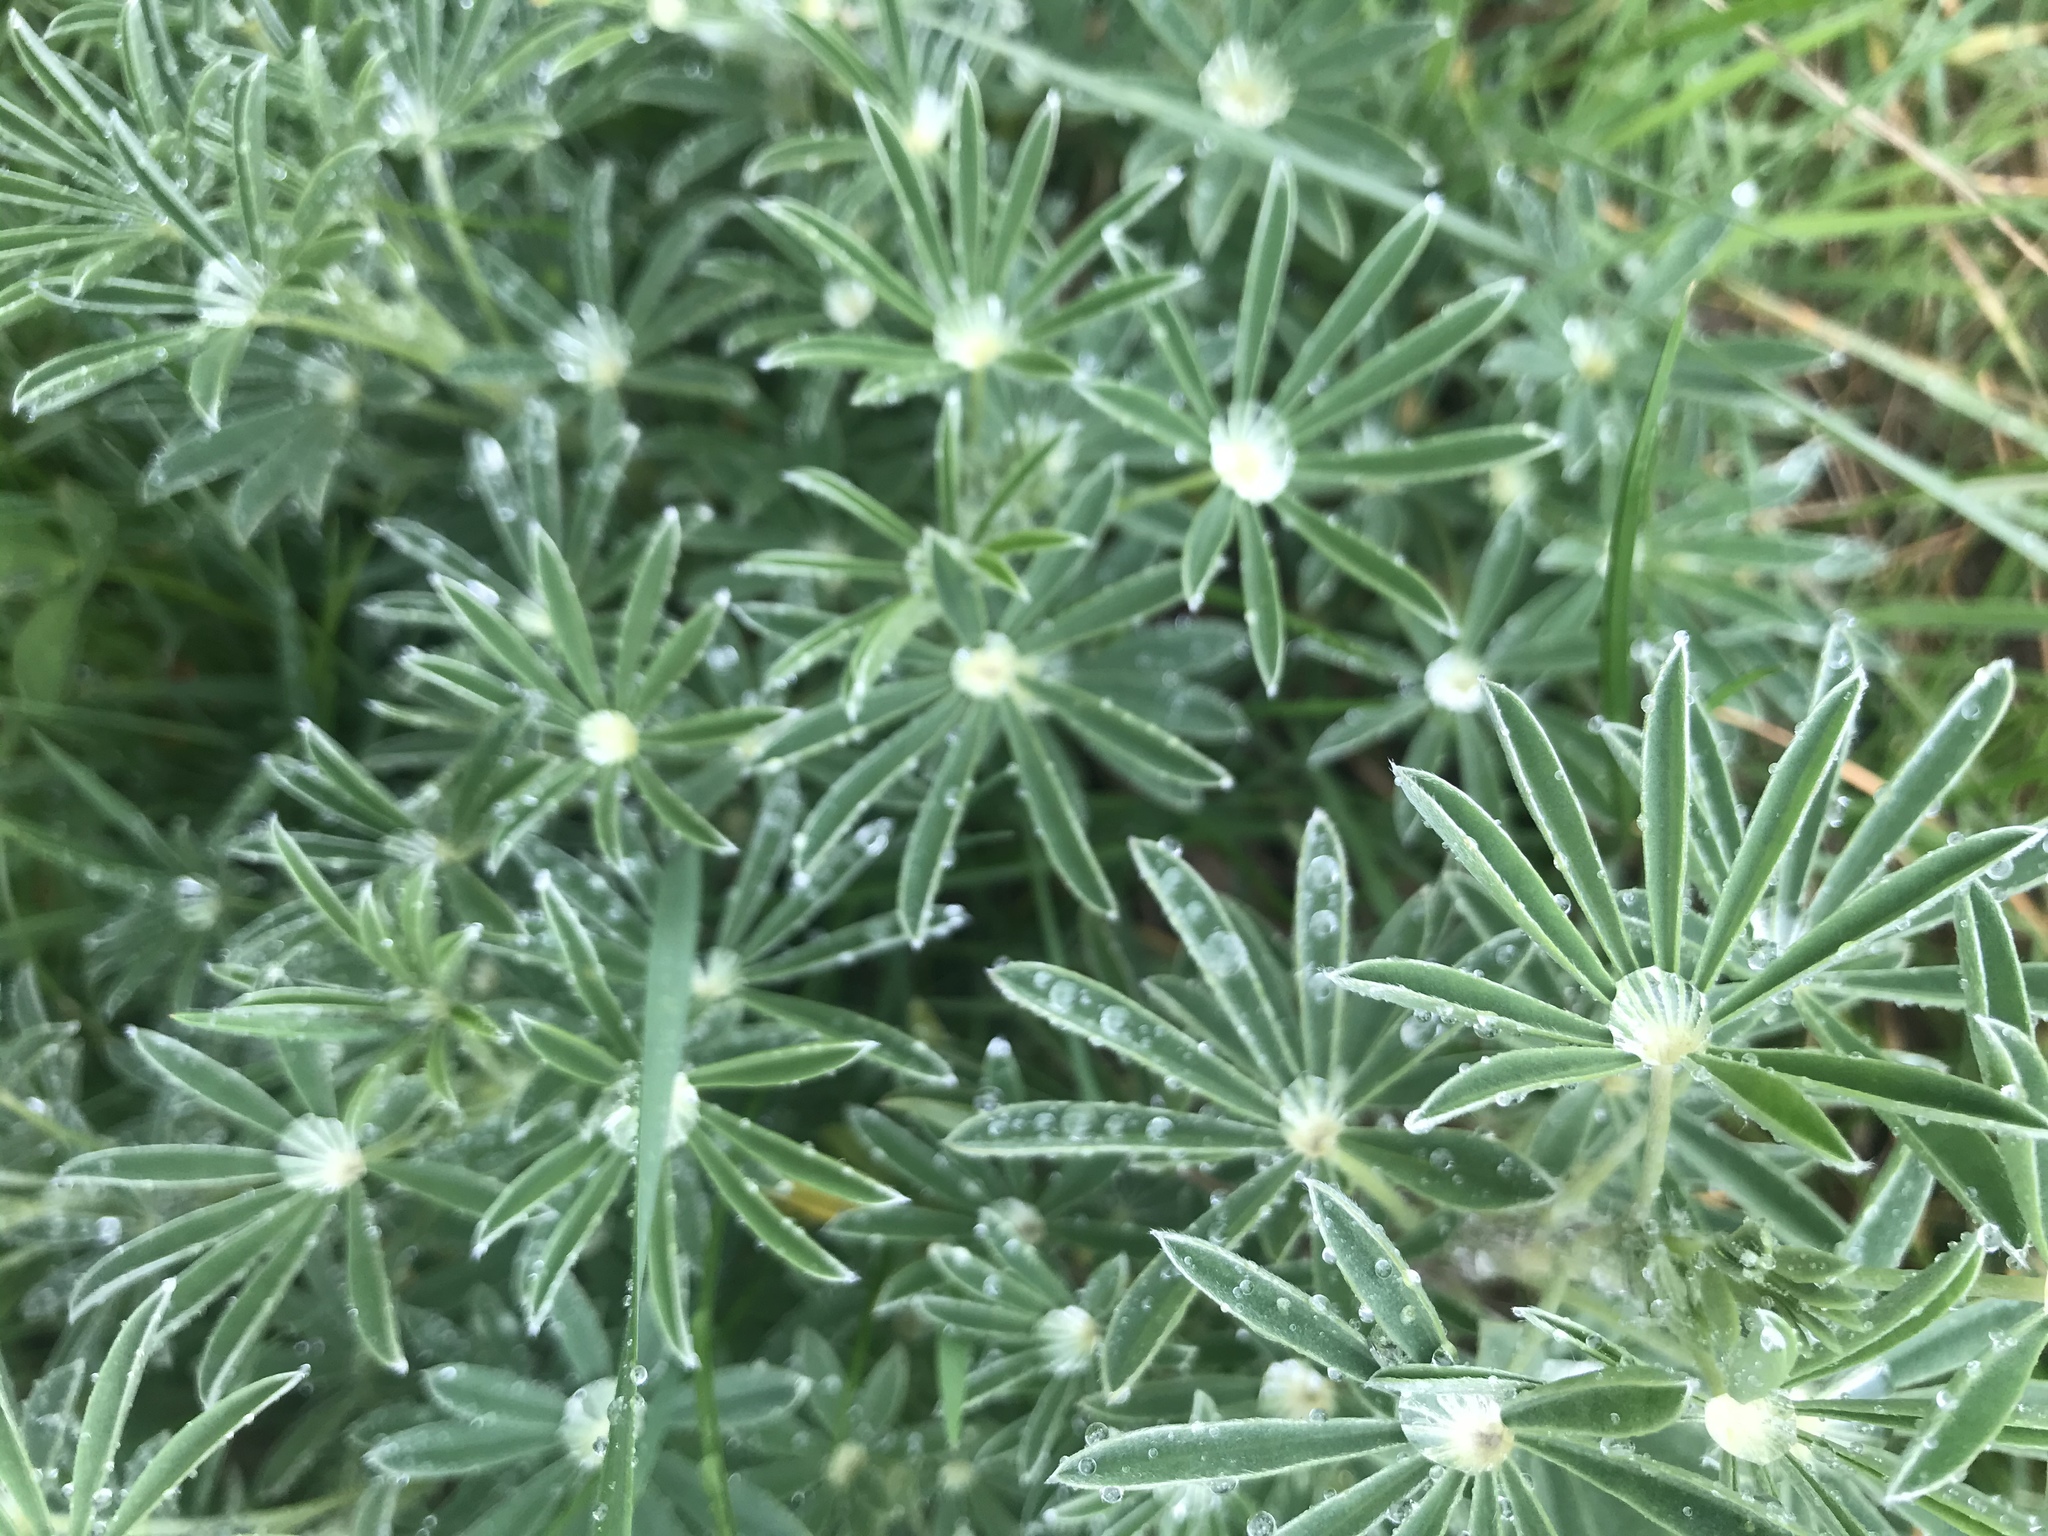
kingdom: Plantae
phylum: Tracheophyta
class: Magnoliopsida
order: Fabales
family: Fabaceae
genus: Lupinus
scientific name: Lupinus polyphyllus
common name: Garden lupin
